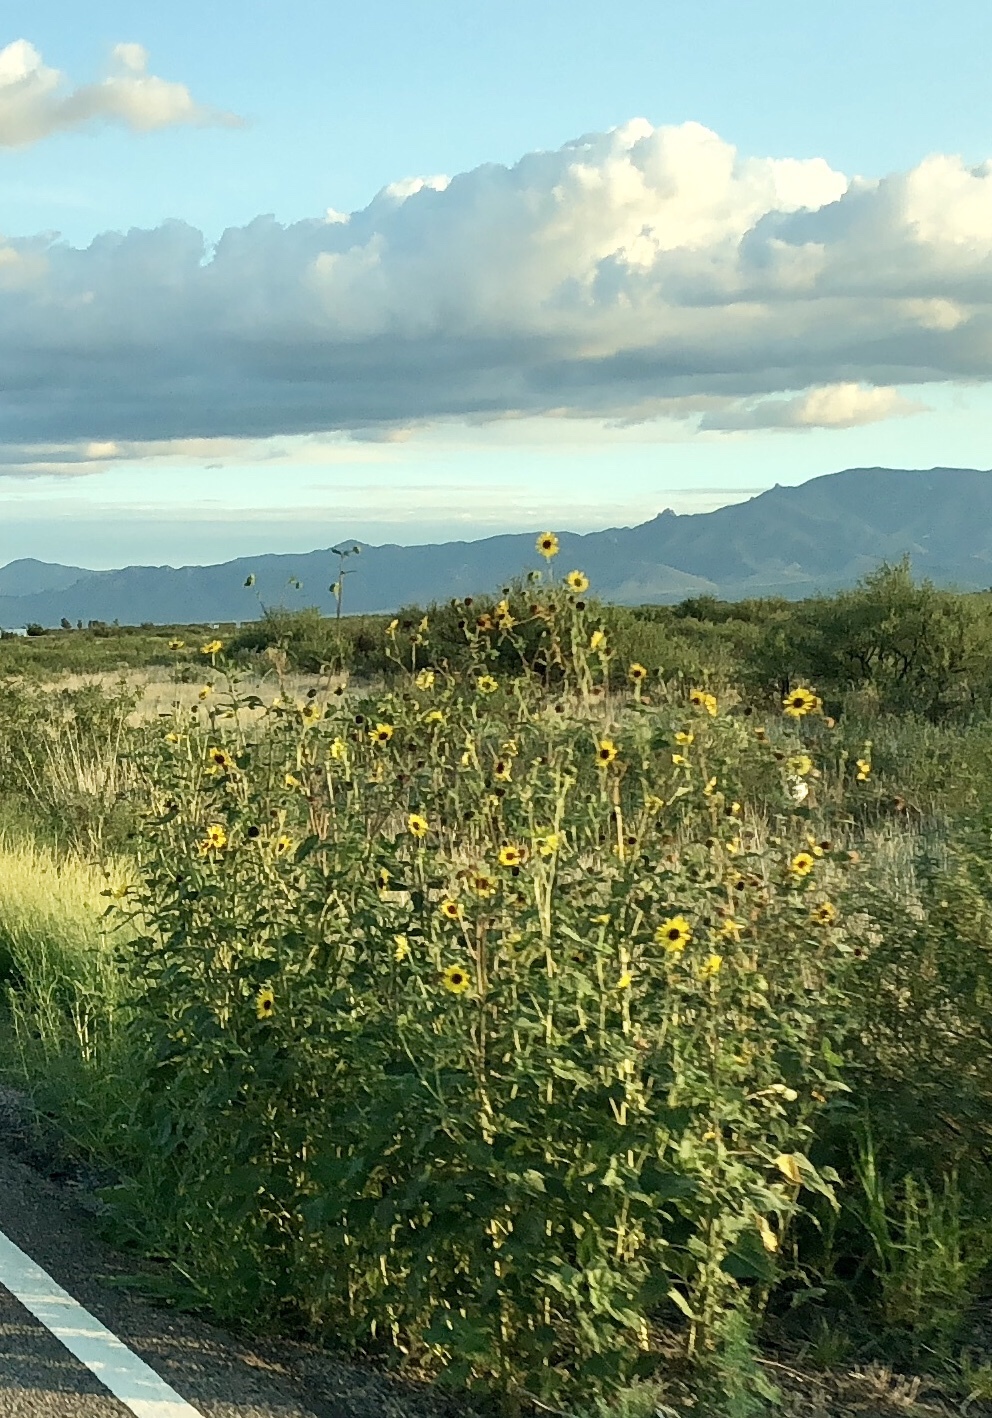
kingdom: Plantae
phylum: Tracheophyta
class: Magnoliopsida
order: Asterales
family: Asteraceae
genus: Helianthus
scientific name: Helianthus annuus
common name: Sunflower
